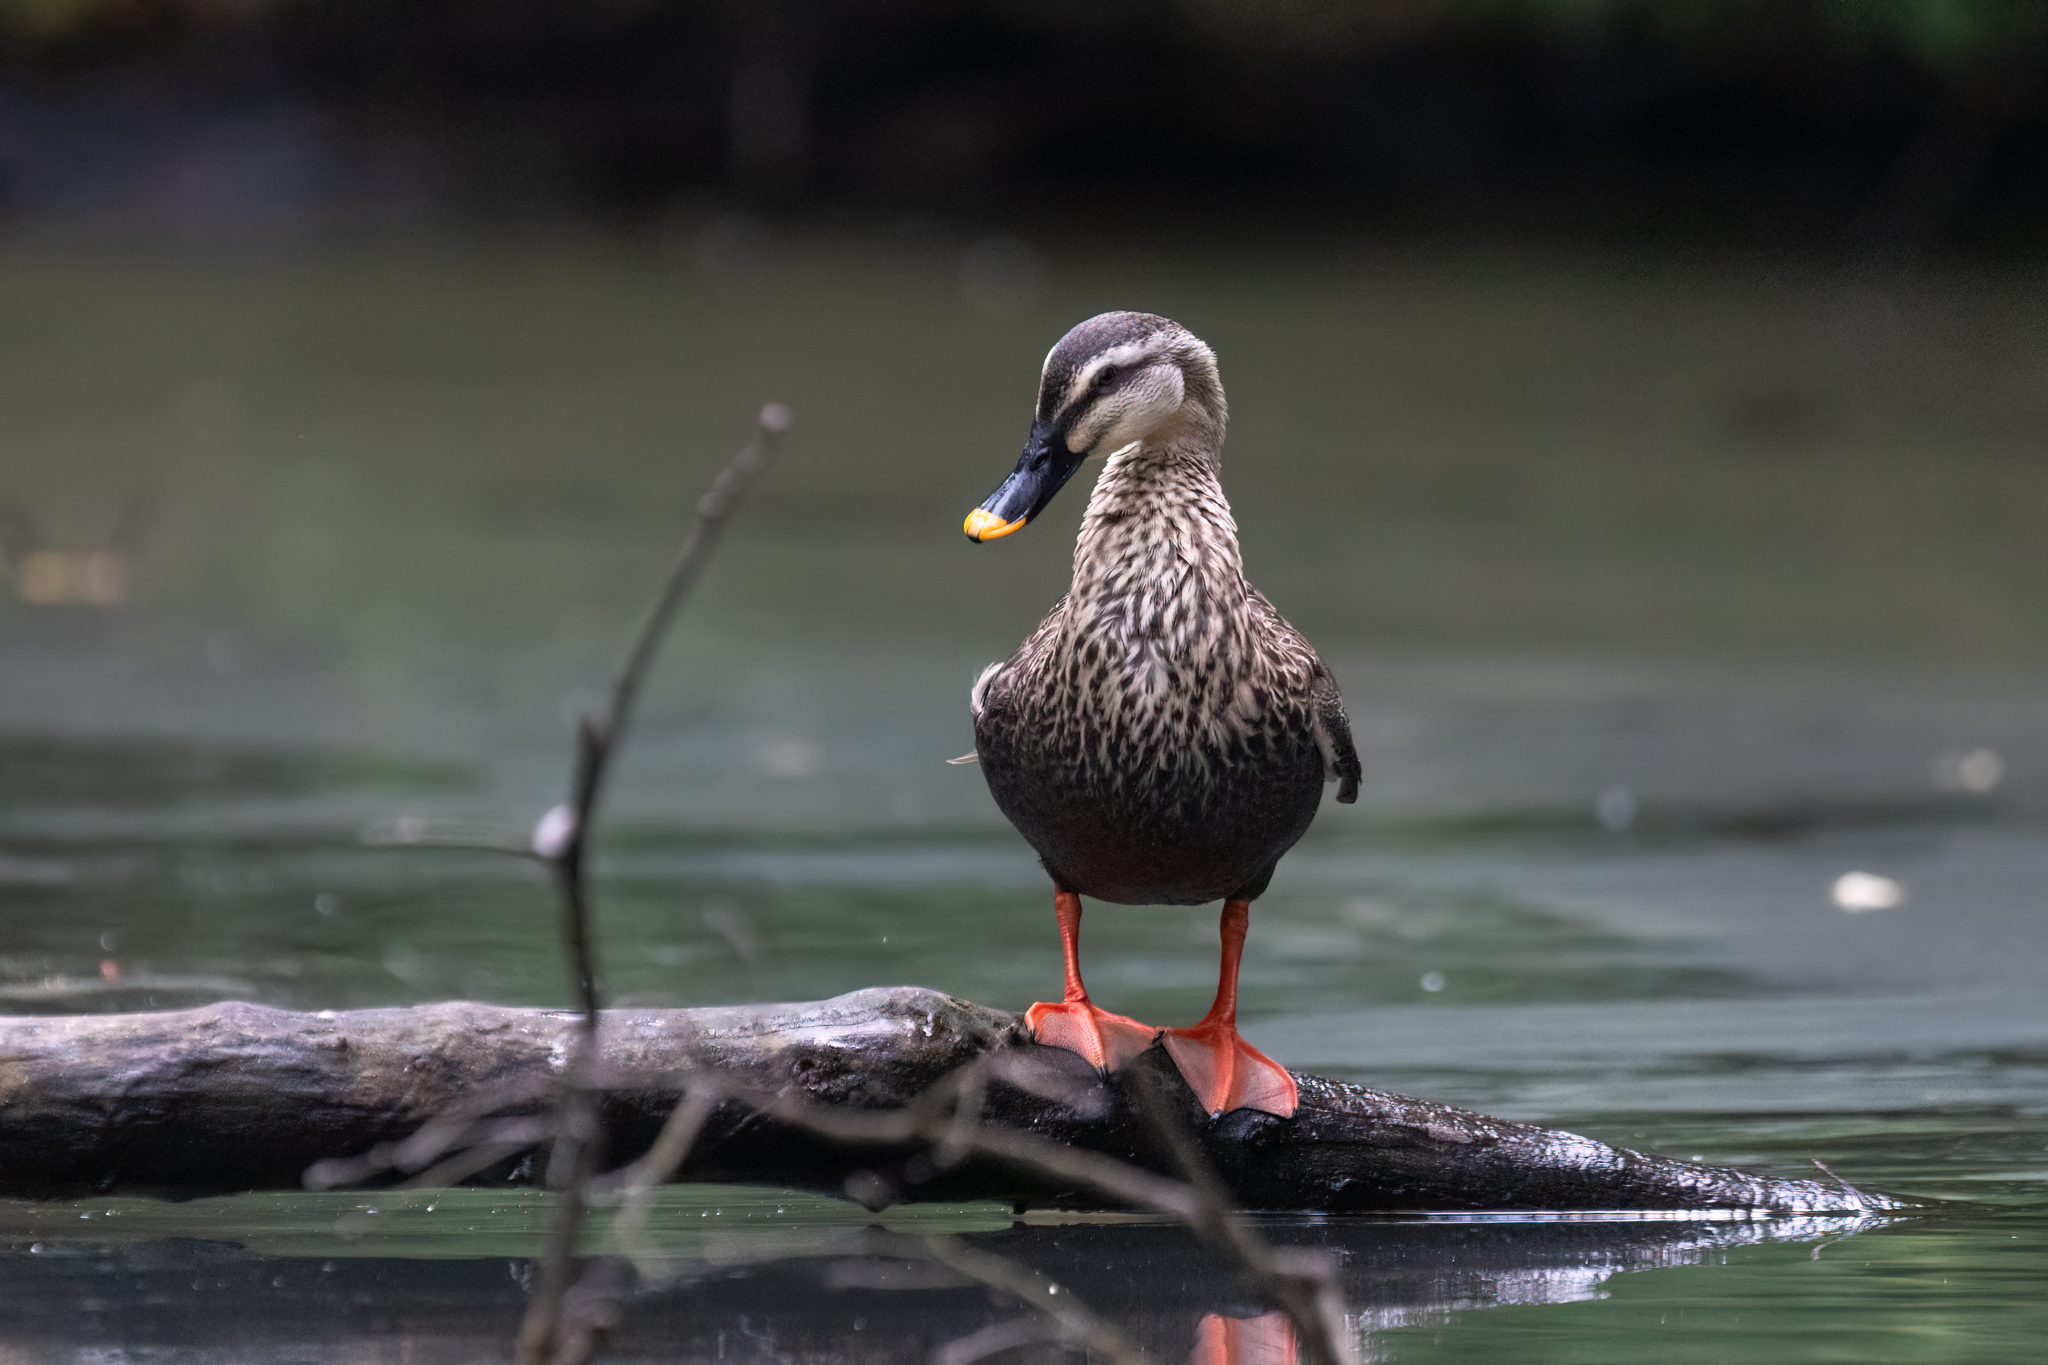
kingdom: Animalia
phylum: Chordata
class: Aves
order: Anseriformes
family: Anatidae
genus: Anas
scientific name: Anas zonorhyncha
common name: Eastern spot-billed duck
